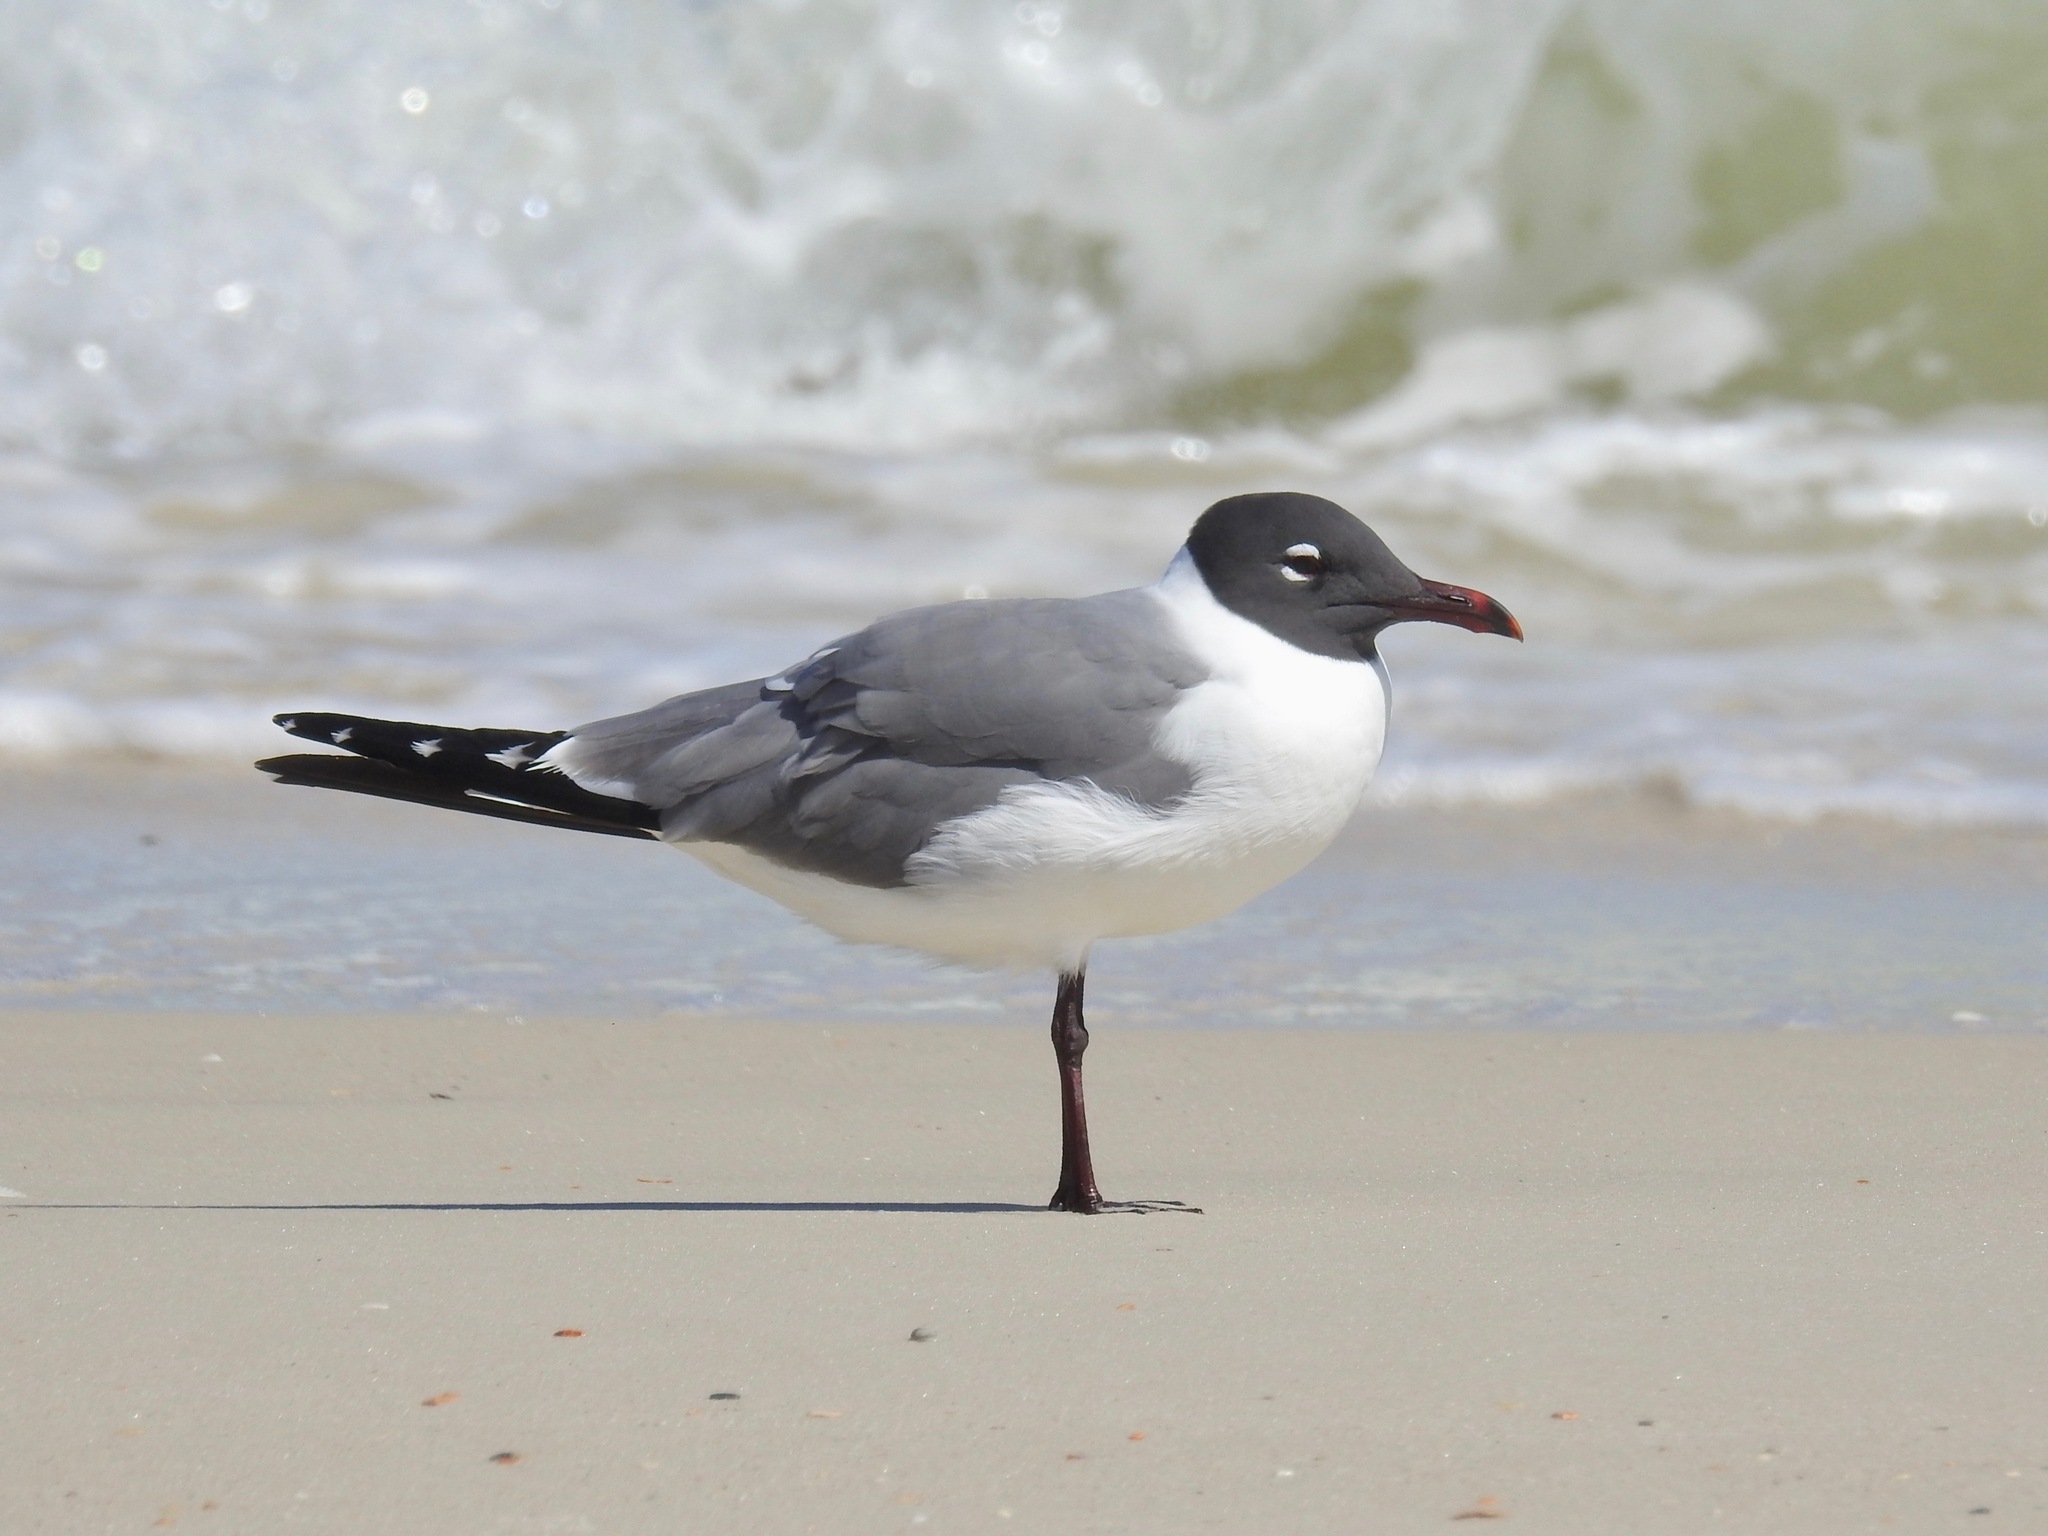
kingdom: Animalia
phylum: Chordata
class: Aves
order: Charadriiformes
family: Laridae
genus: Leucophaeus
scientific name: Leucophaeus atricilla
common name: Laughing gull
